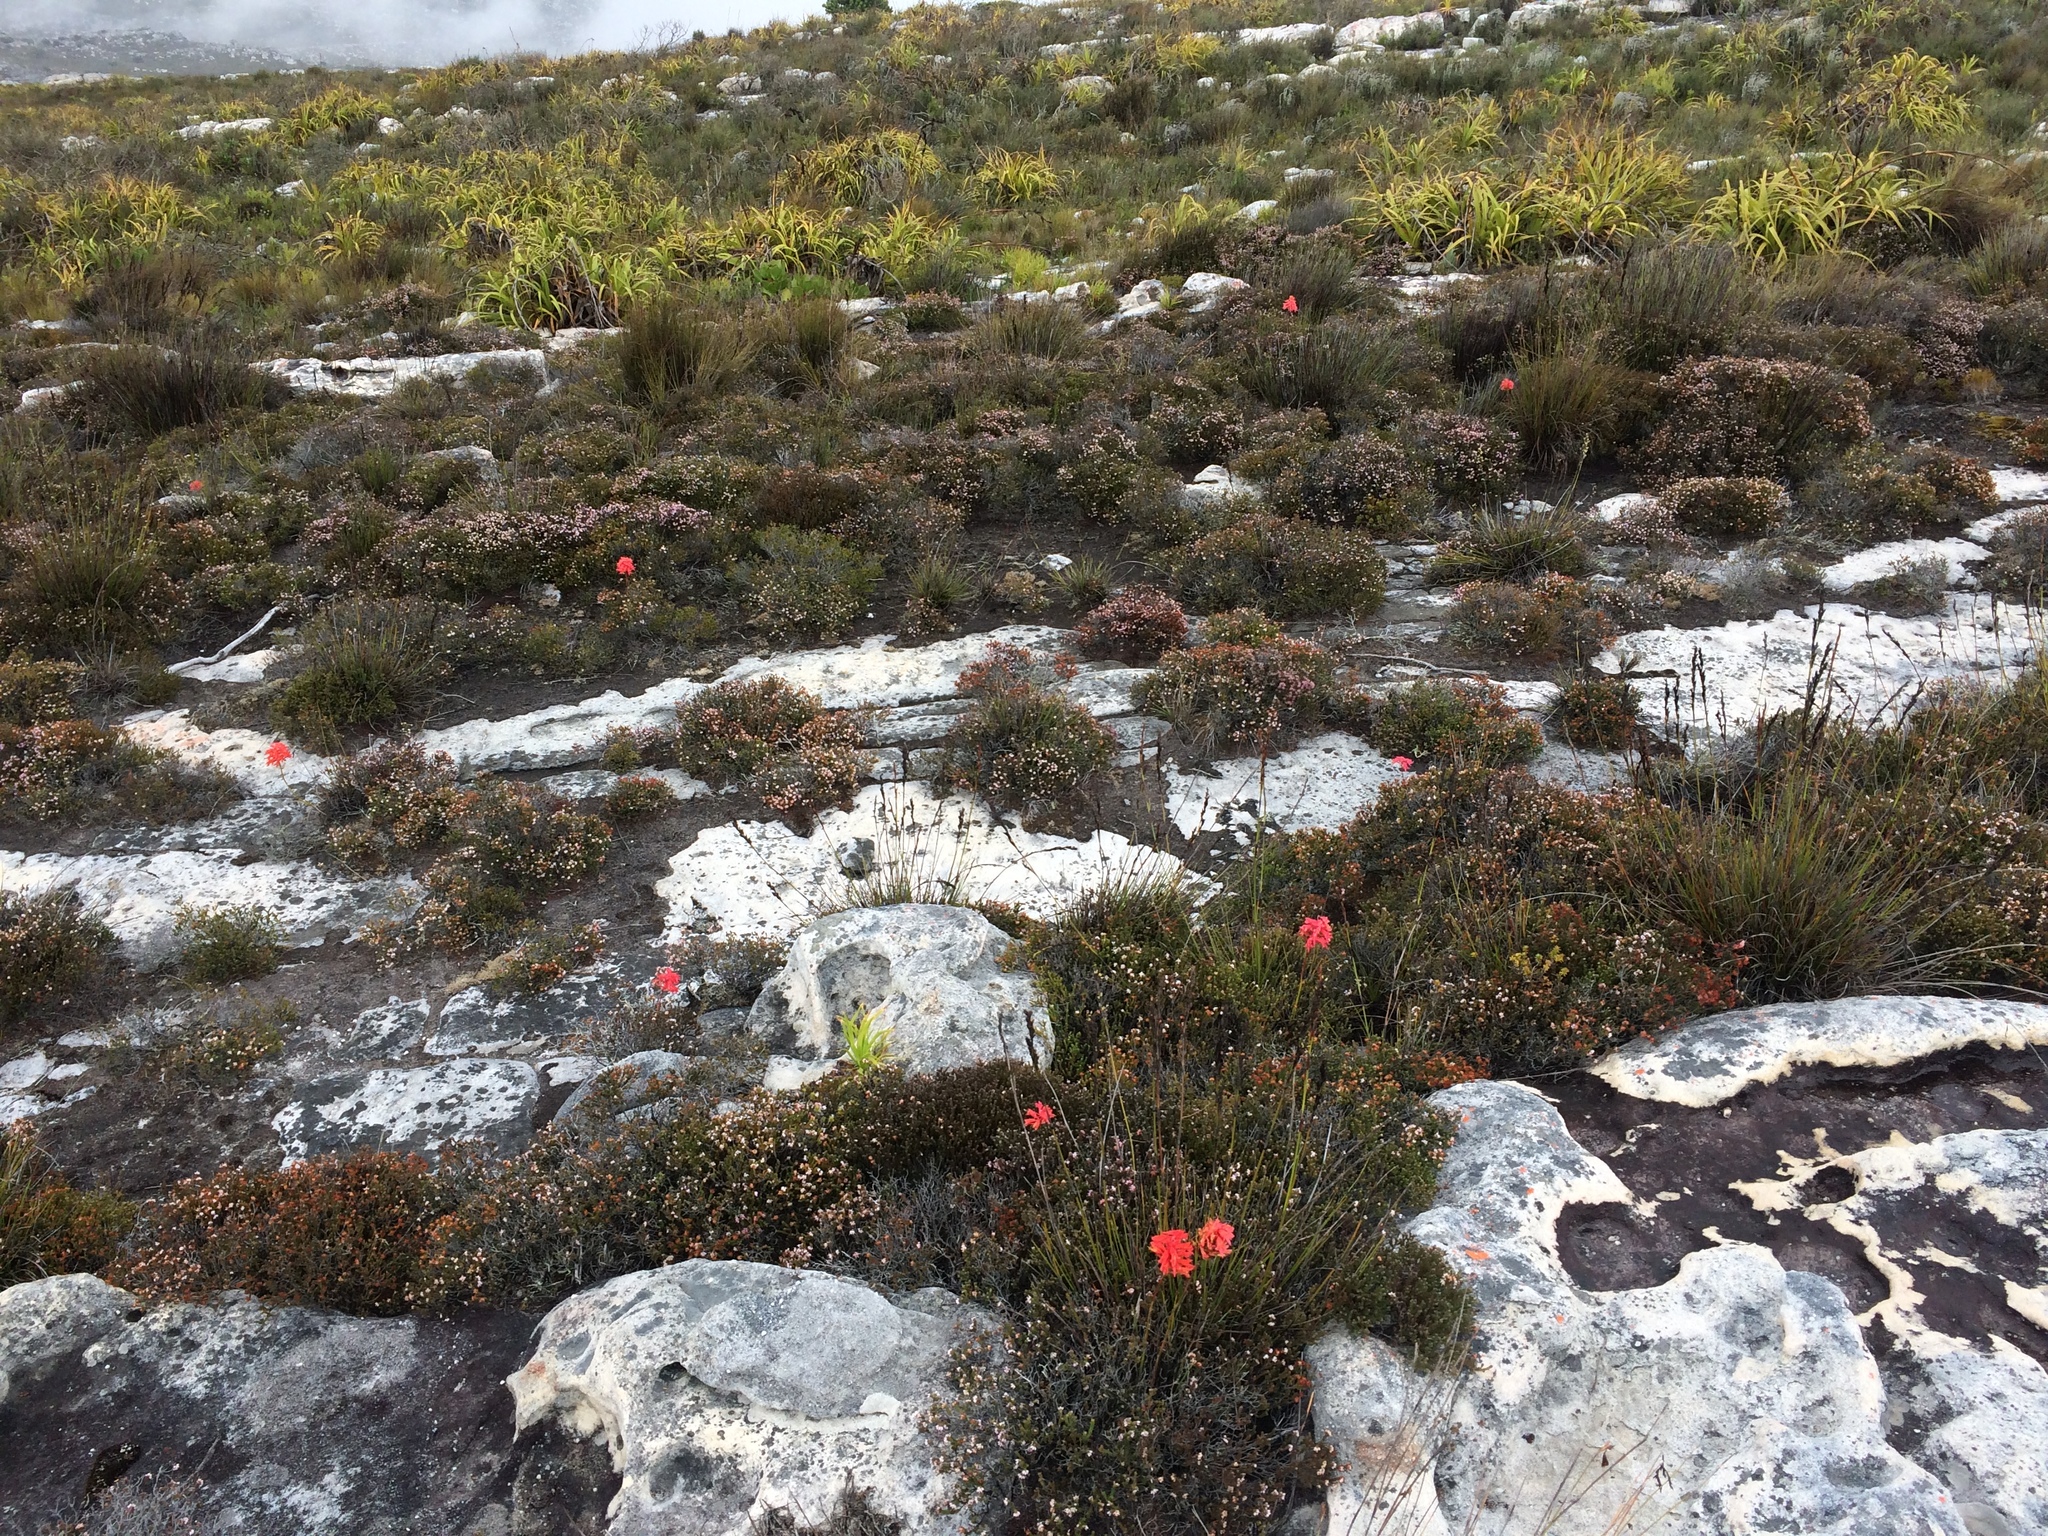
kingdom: Plantae
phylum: Tracheophyta
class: Liliopsida
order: Asparagales
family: Orchidaceae
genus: Disa
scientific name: Disa ferruginea
